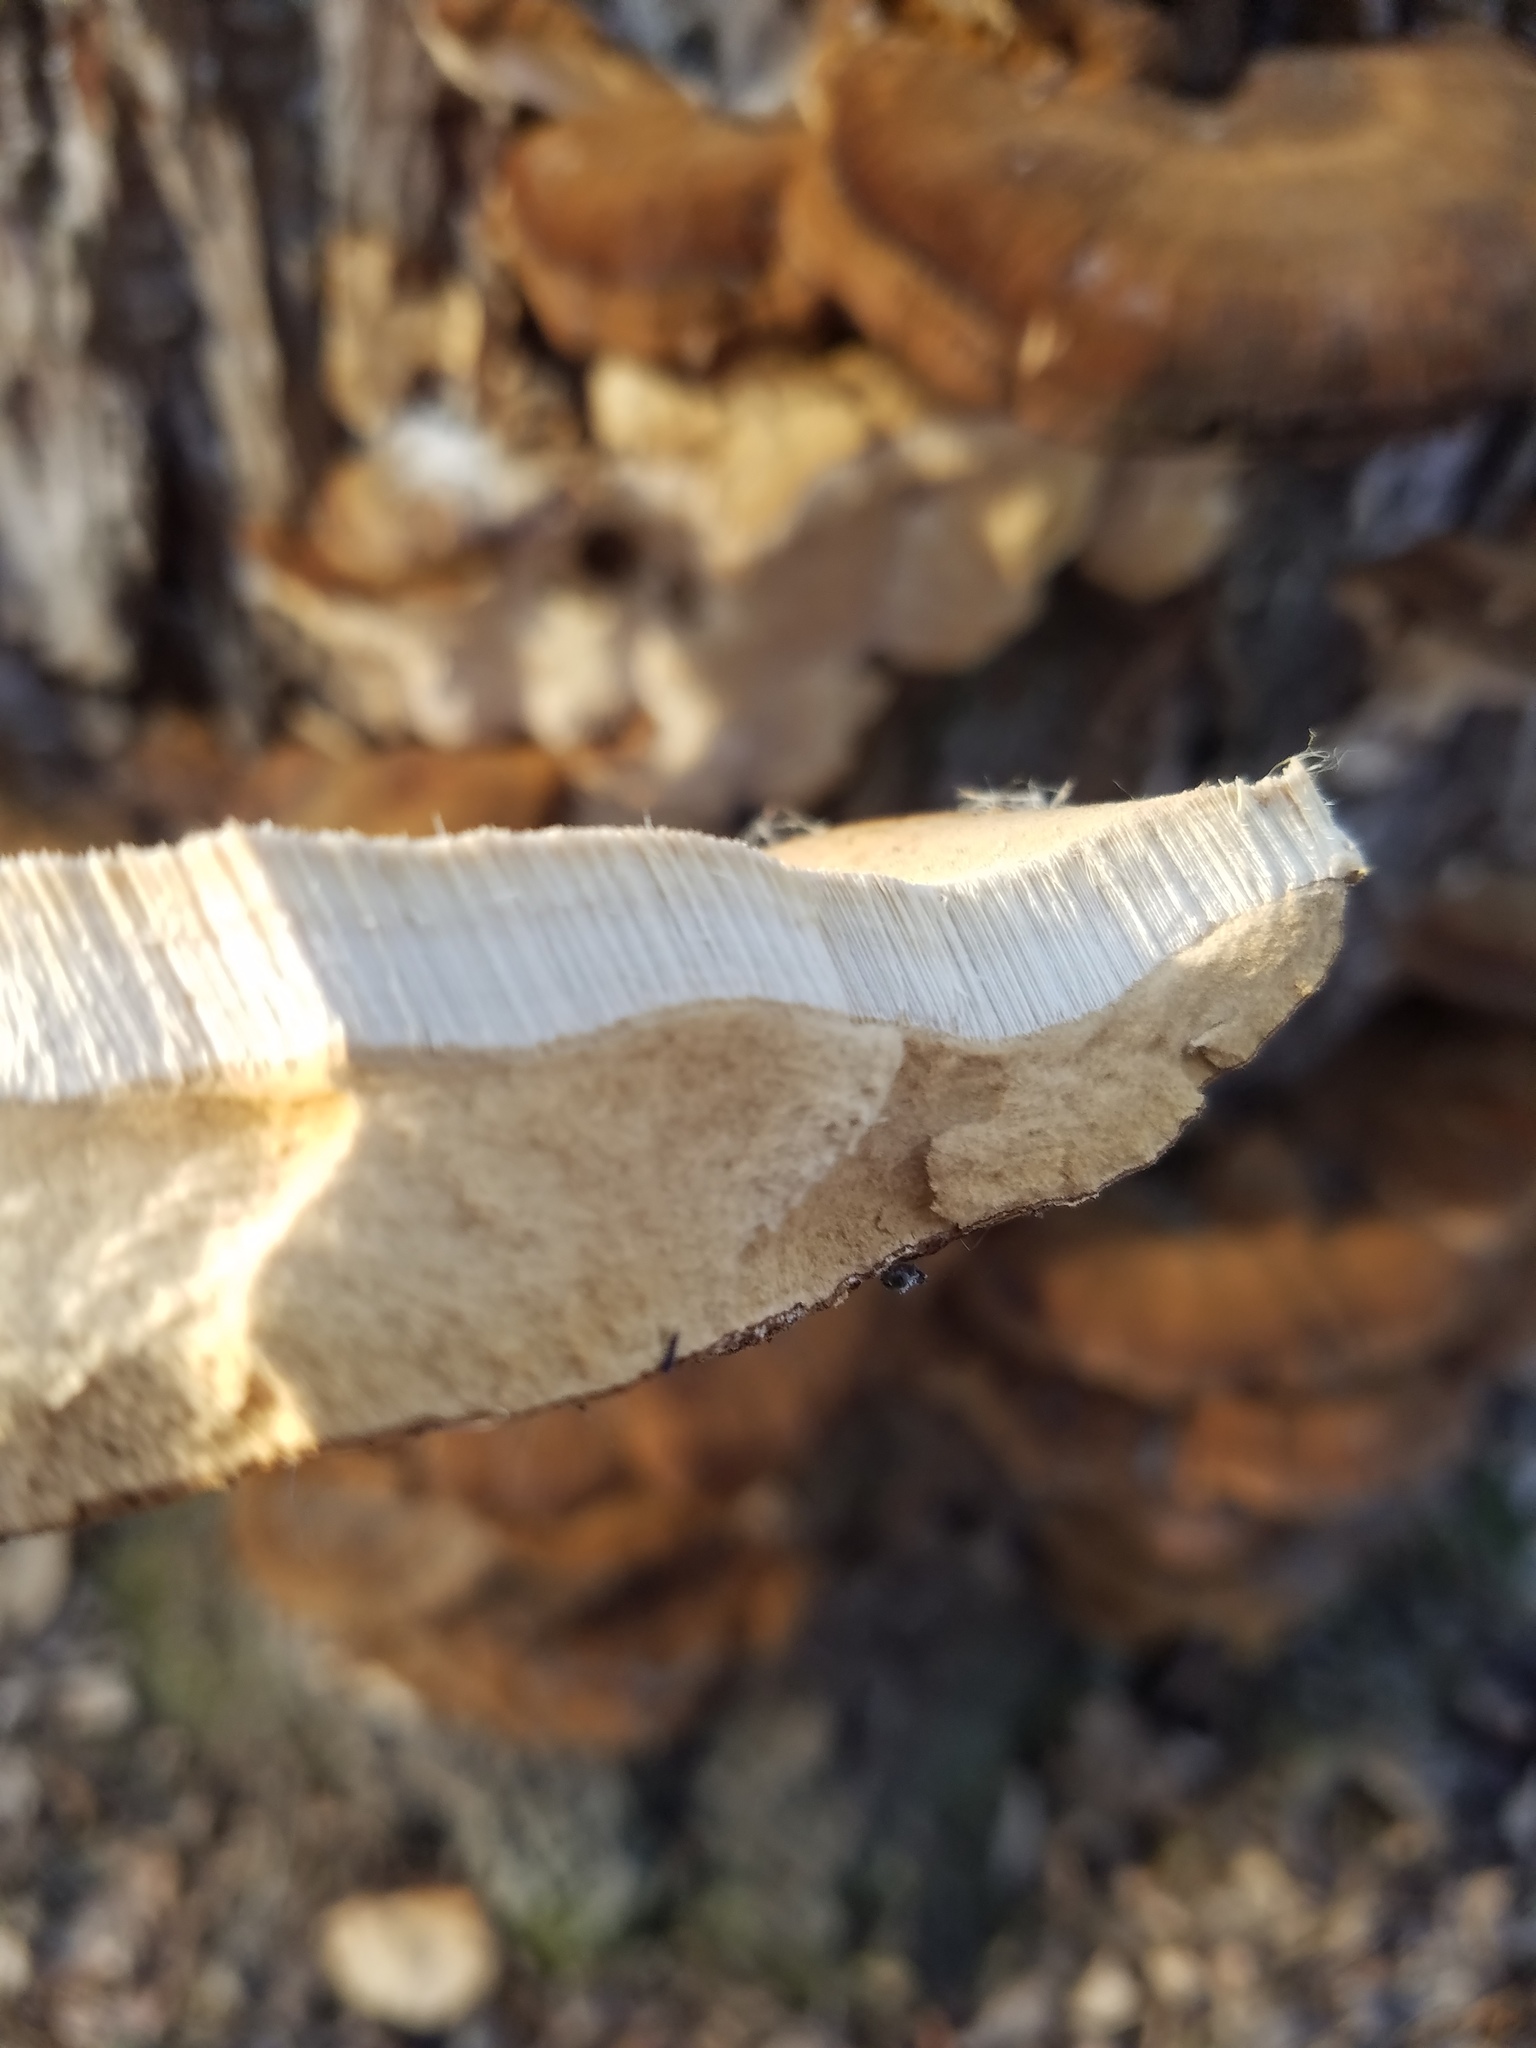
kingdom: Fungi
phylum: Basidiomycota
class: Agaricomycetes
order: Polyporales
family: Ischnodermataceae
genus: Ischnoderma
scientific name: Ischnoderma resinosum
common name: Resinous polypore
